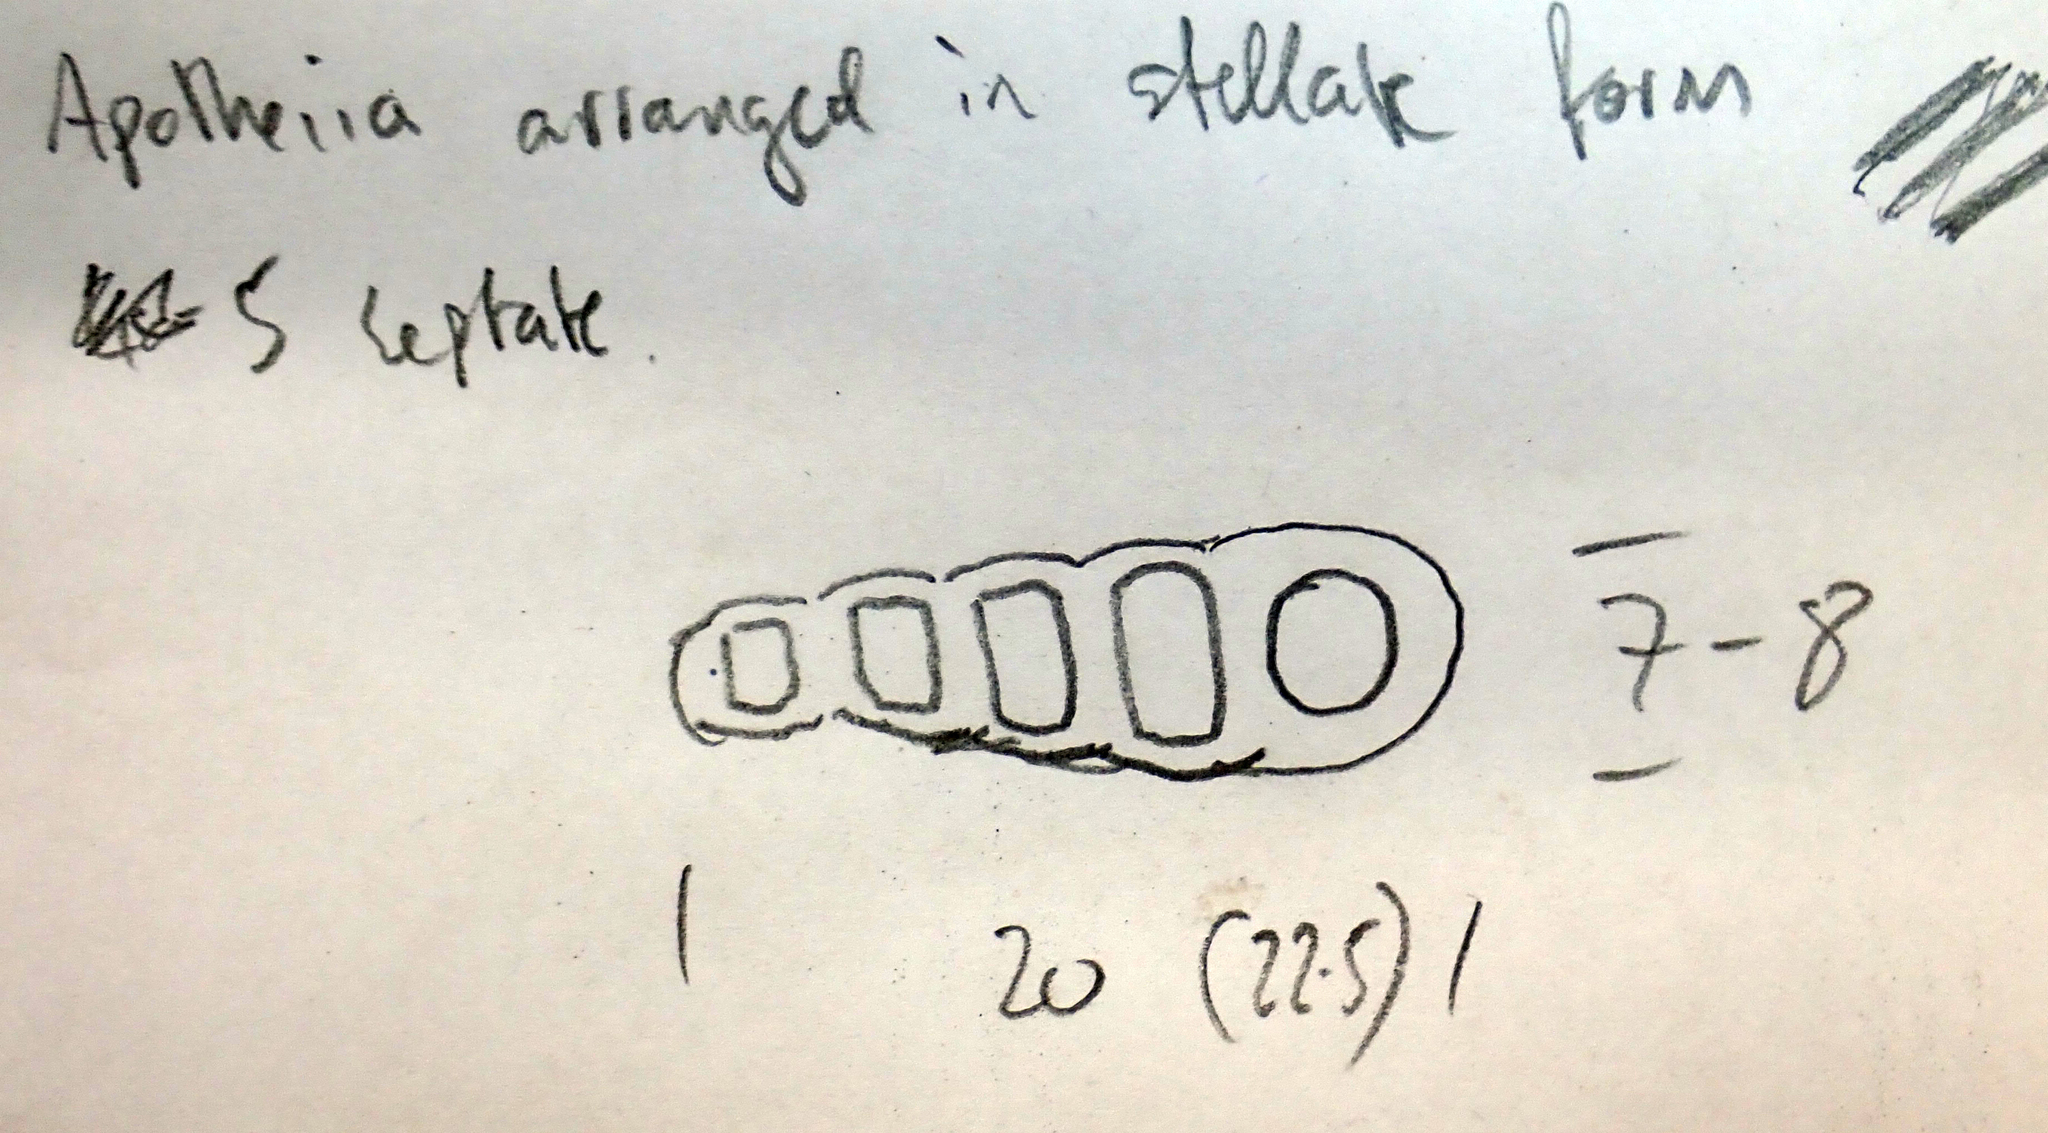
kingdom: Fungi
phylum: Ascomycota
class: Arthoniomycetes
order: Arthoniales
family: Arthoniaceae
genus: Arthonia
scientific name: Arthonia peraffinis
